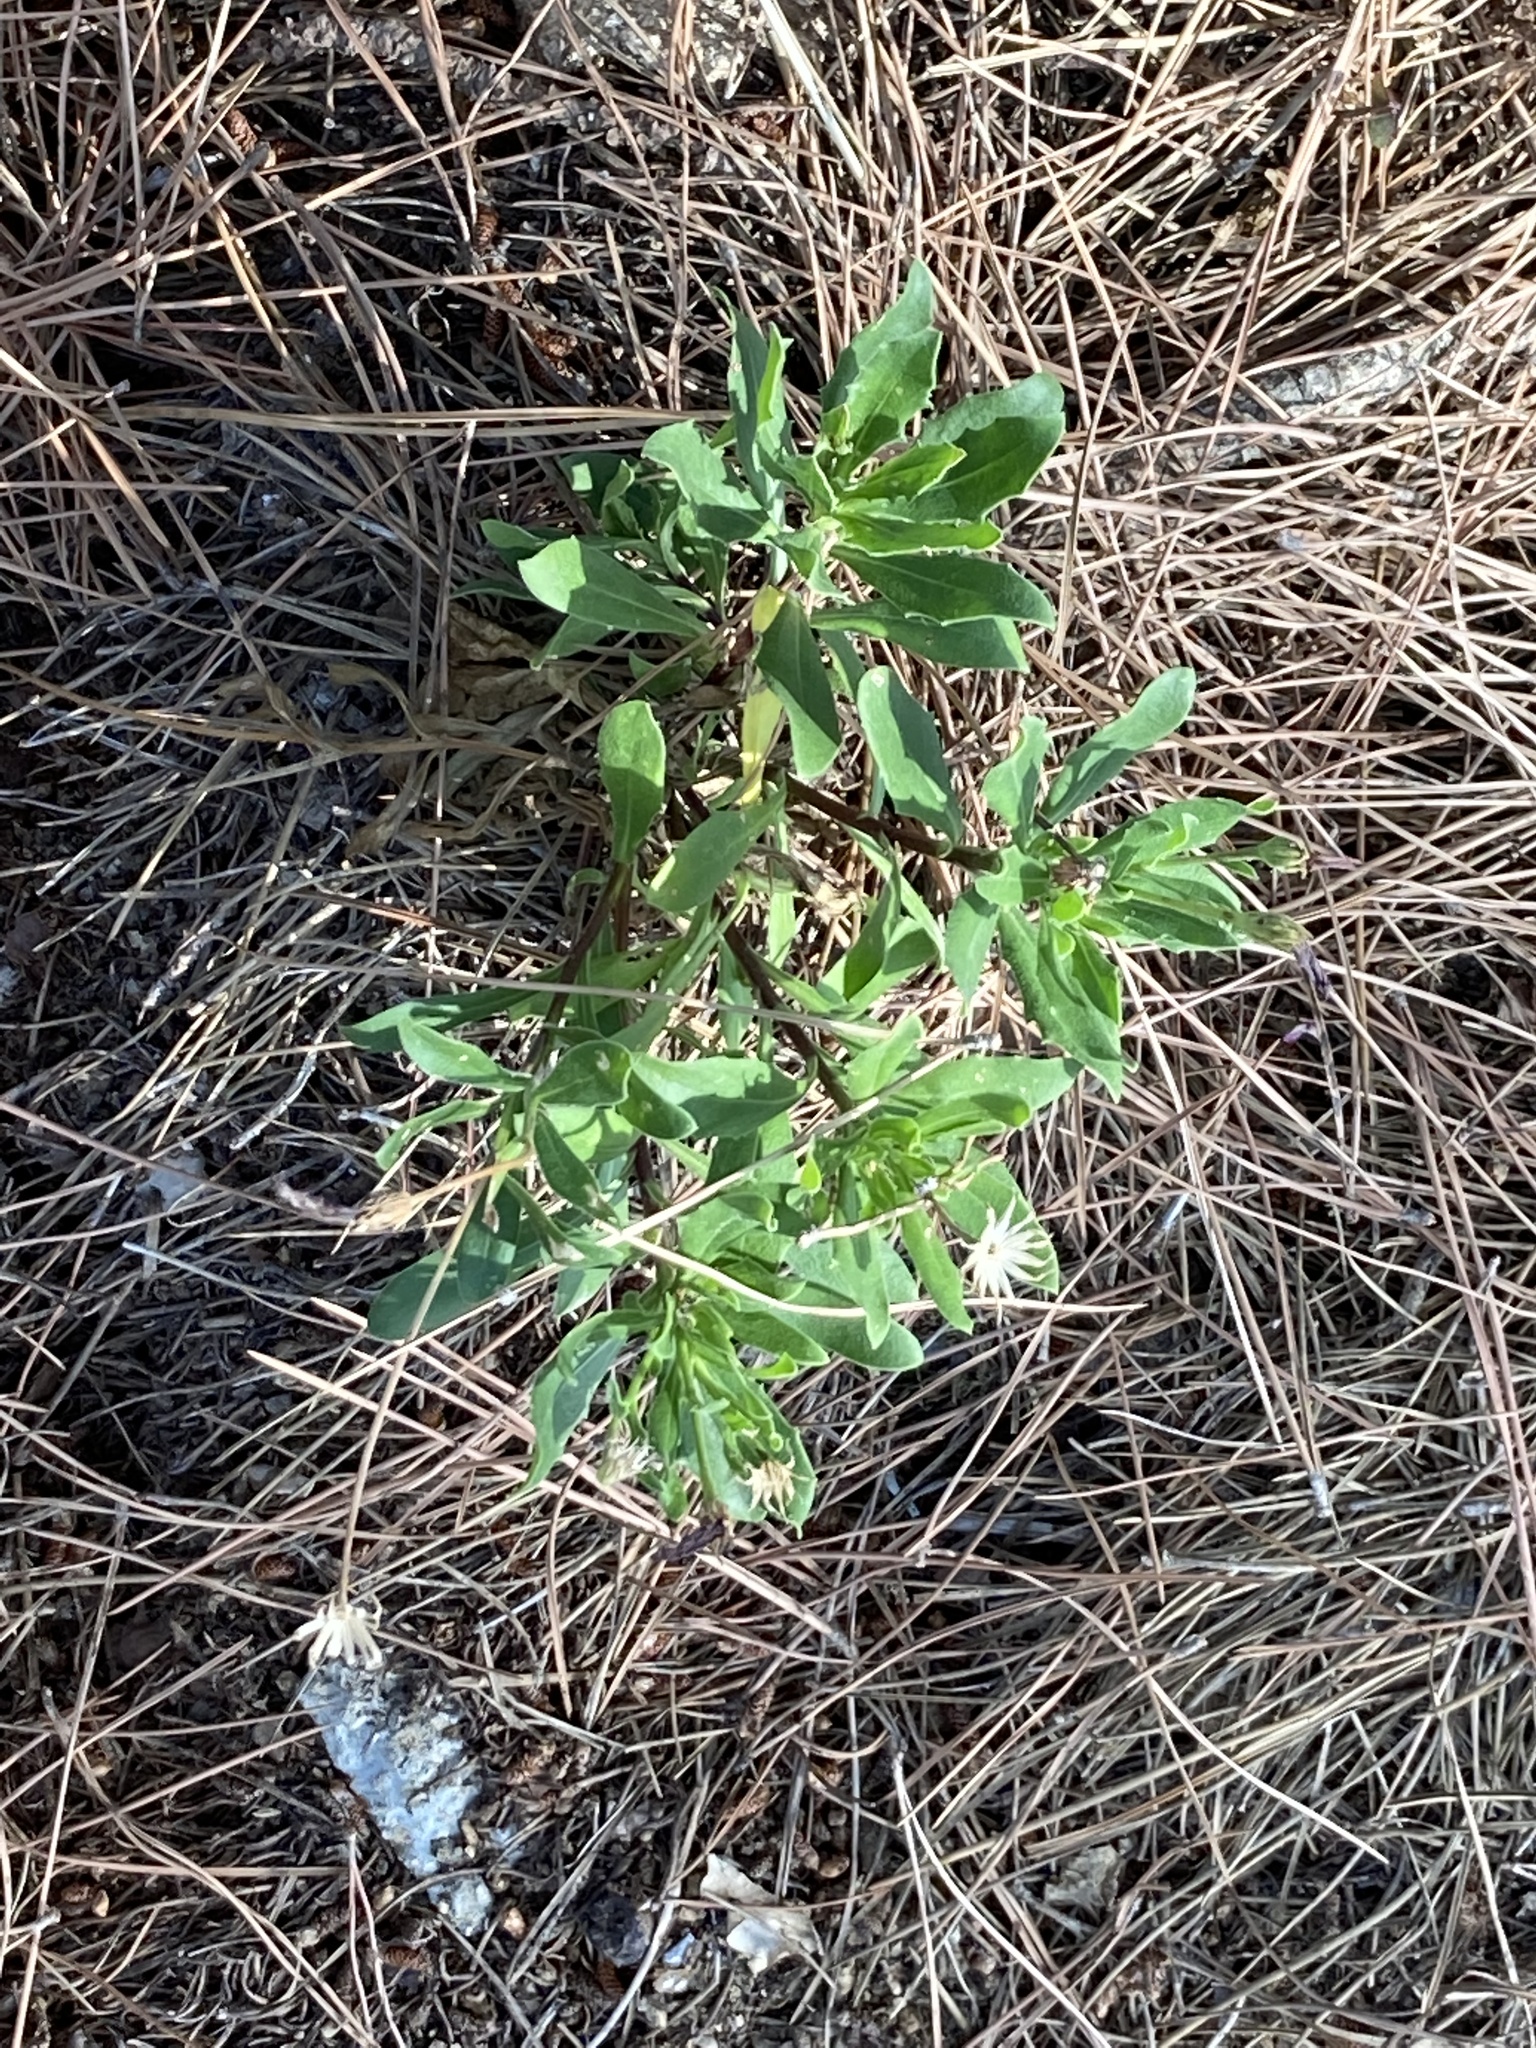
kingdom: Plantae
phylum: Tracheophyta
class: Magnoliopsida
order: Asterales
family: Asteraceae
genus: Dimorphotheca
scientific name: Dimorphotheca ecklonis
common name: Vanstaden's river daisy
